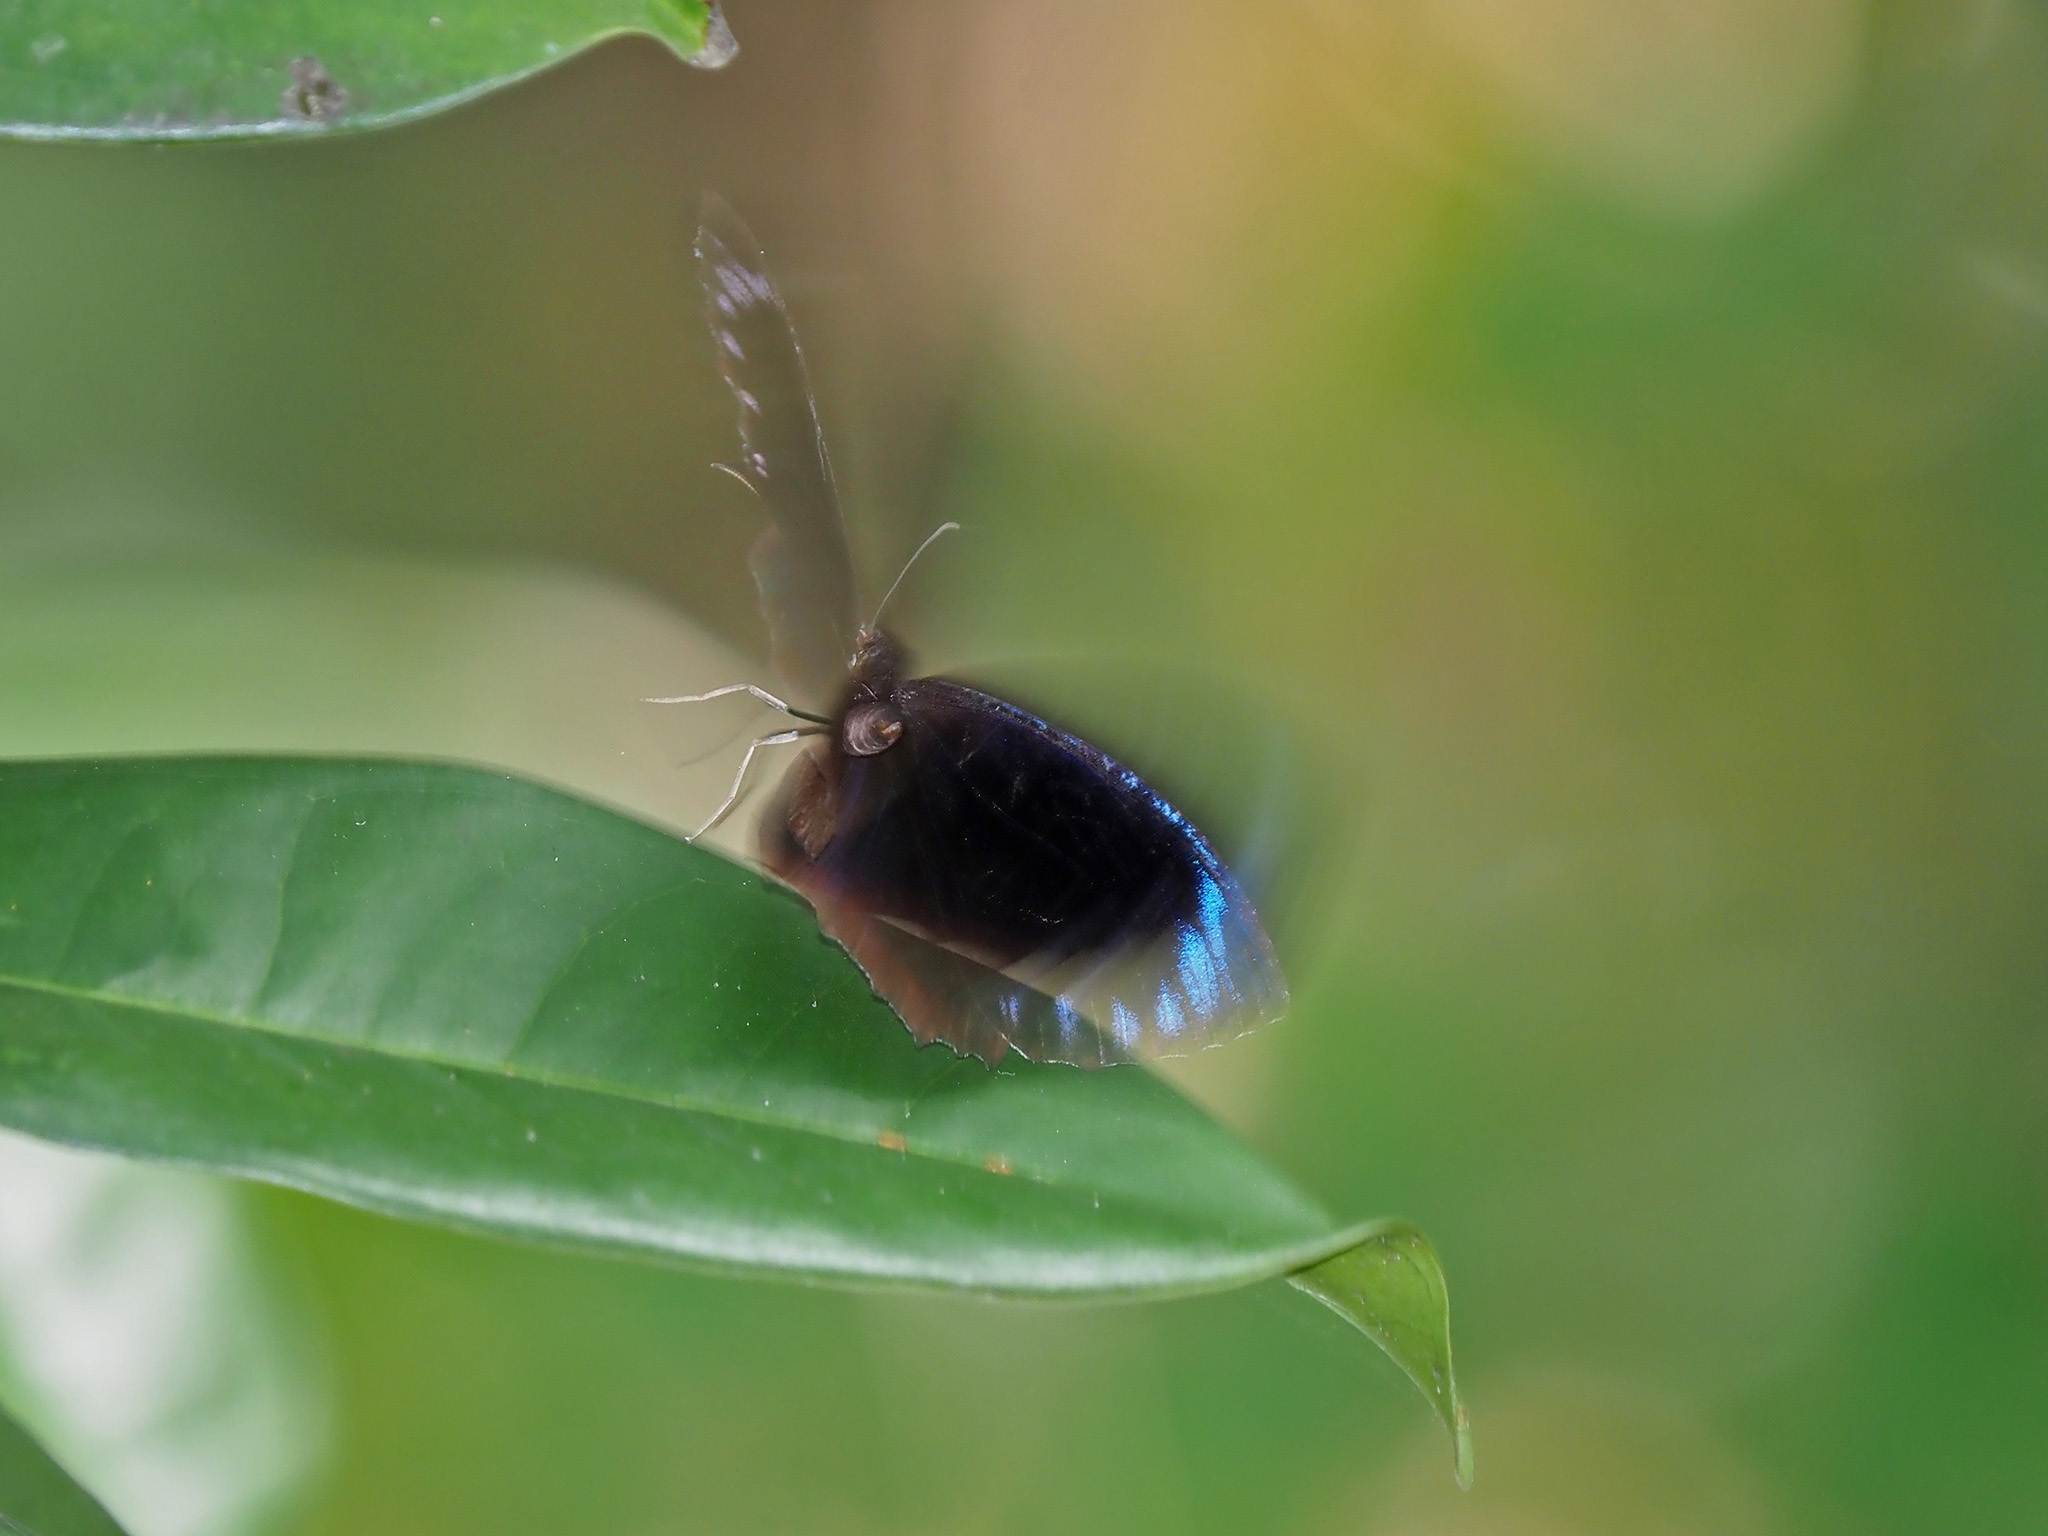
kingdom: Animalia
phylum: Arthropoda
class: Insecta
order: Lepidoptera
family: Nymphalidae
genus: Elymnias
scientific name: Elymnias hypermnestra
